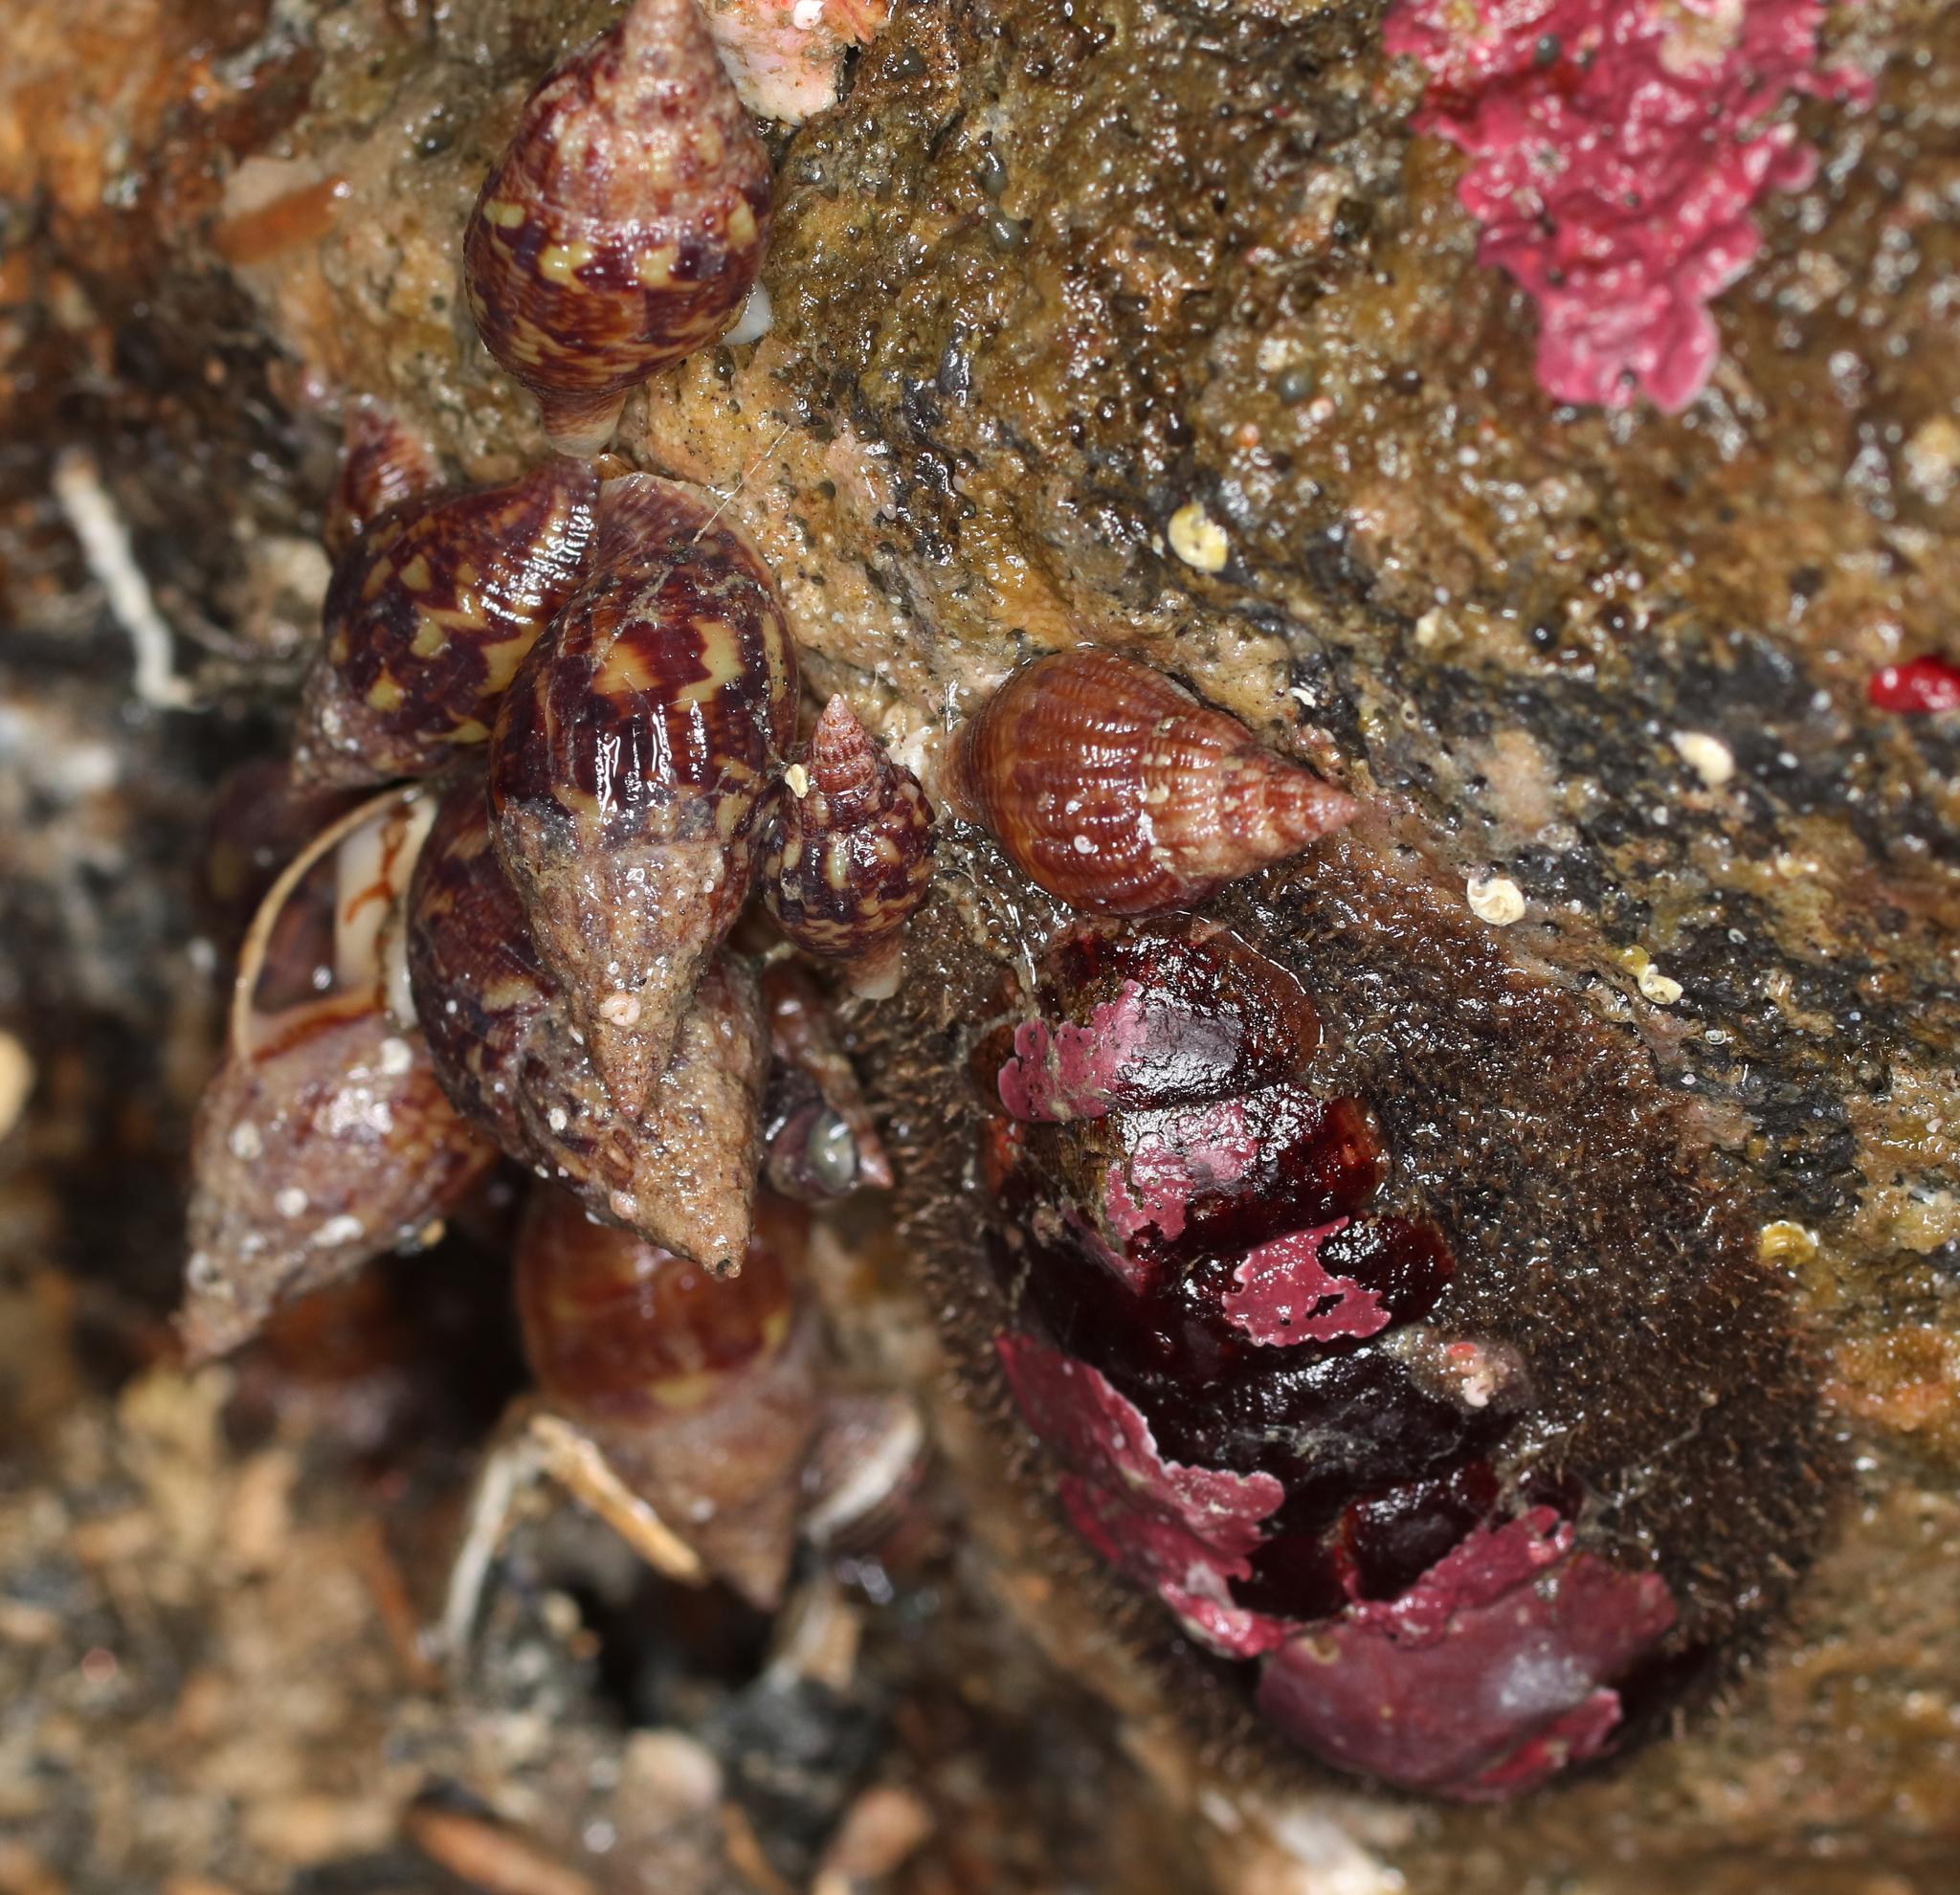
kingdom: Animalia
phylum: Mollusca
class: Gastropoda
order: Neogastropoda
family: Columbellidae
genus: Amphissa
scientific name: Amphissa columbiana
